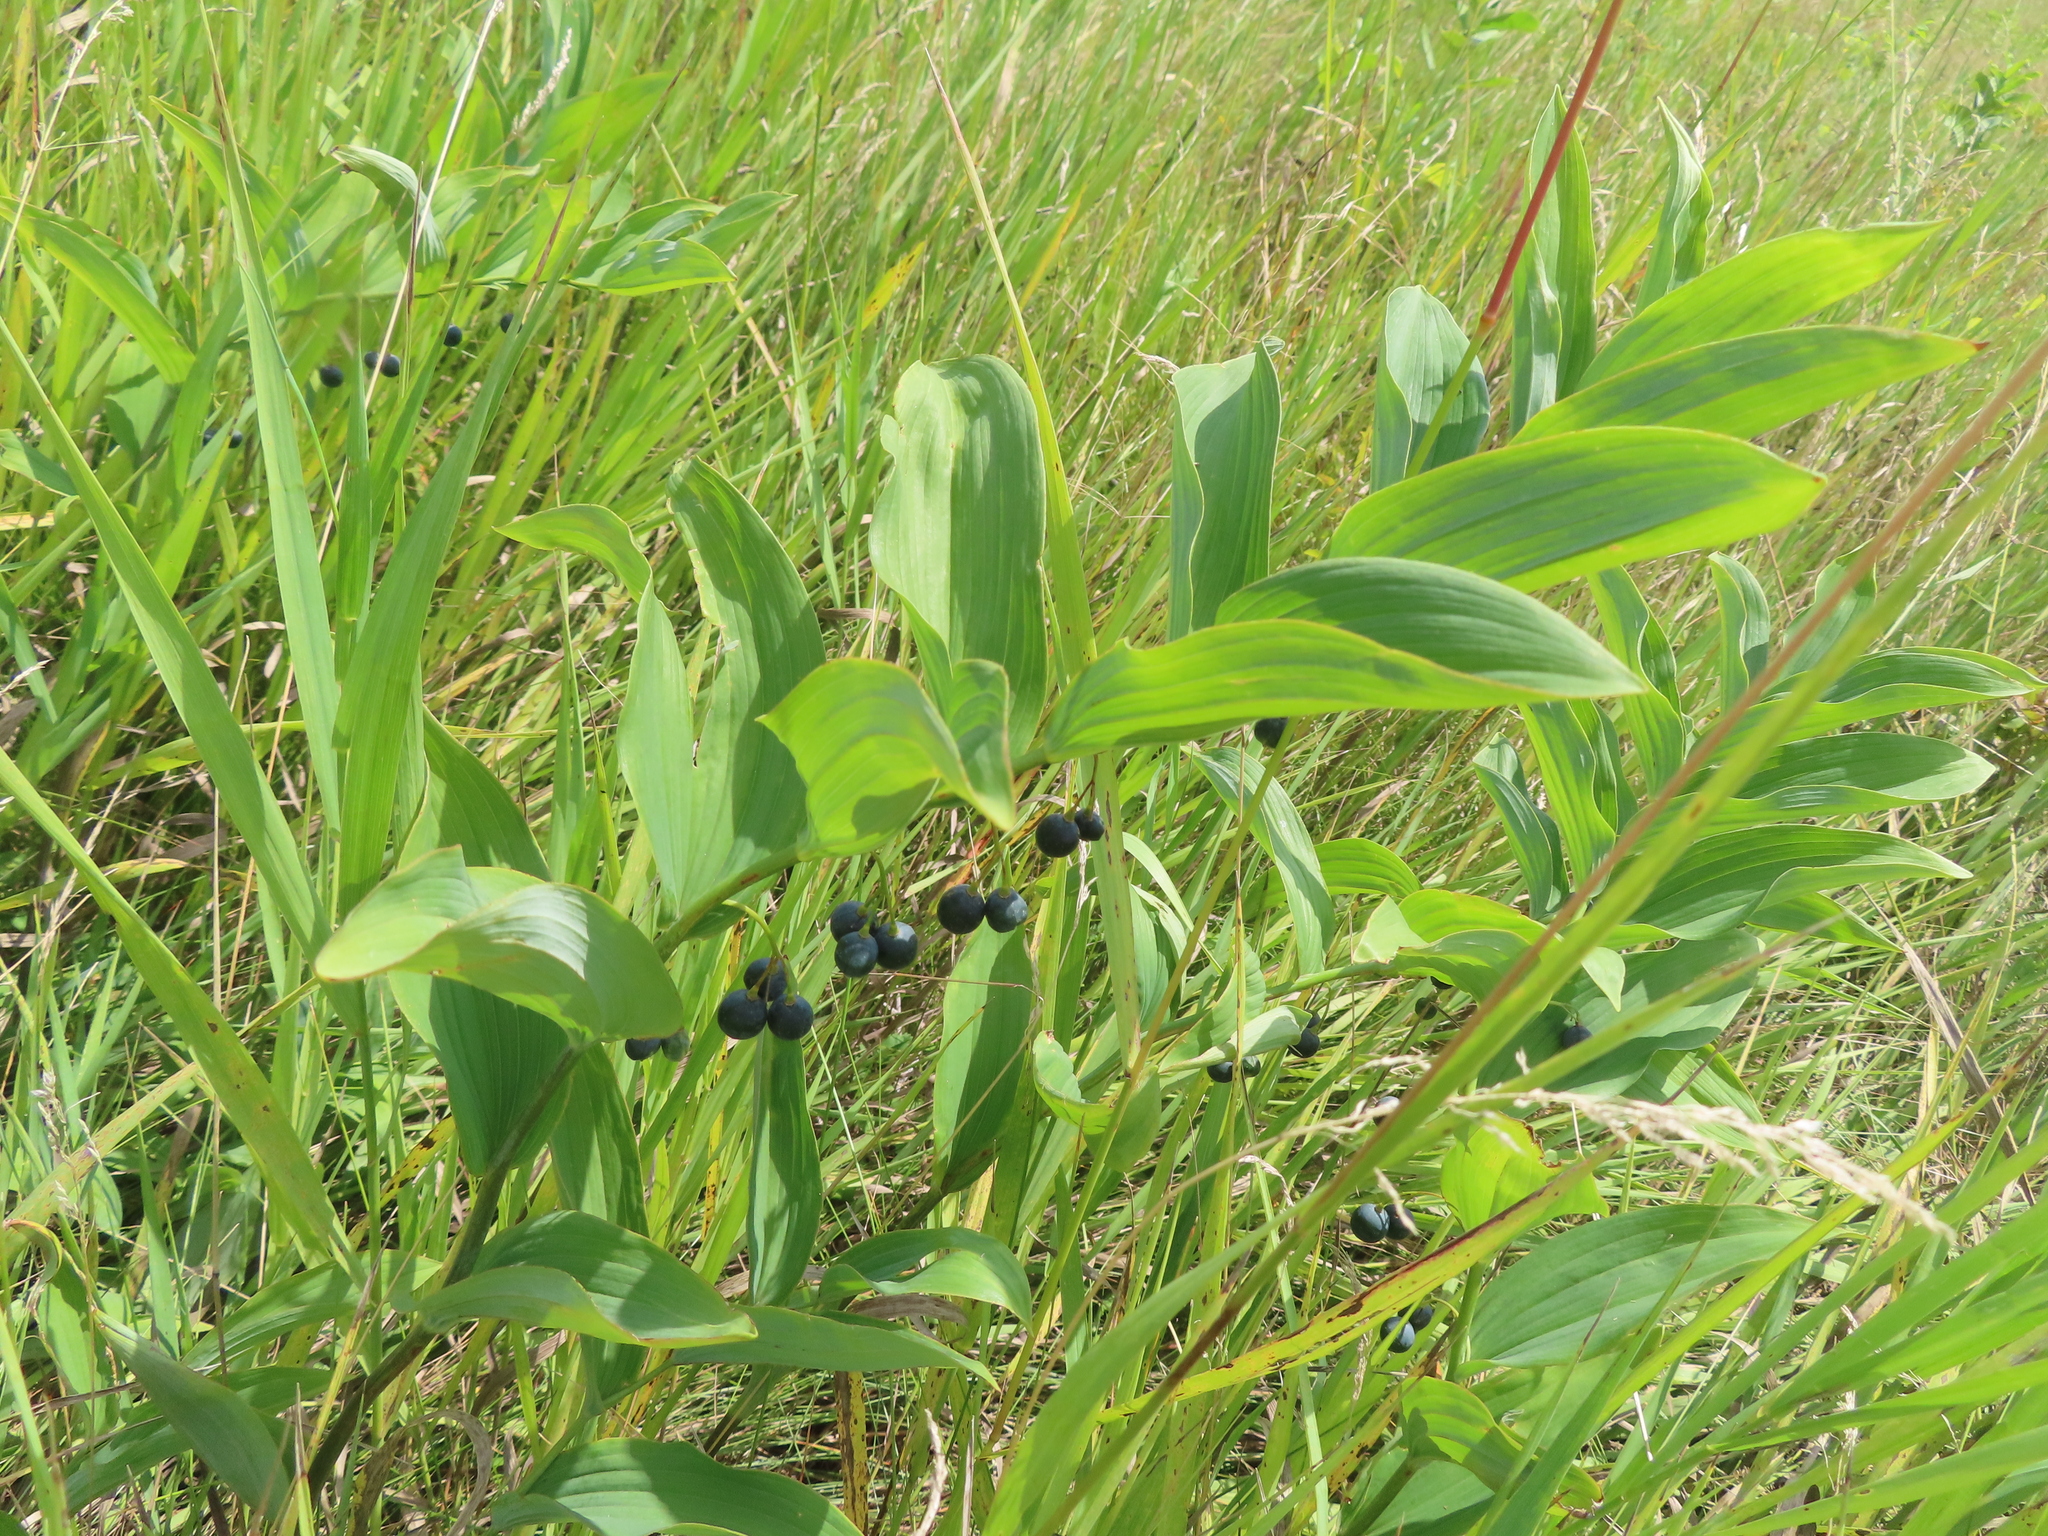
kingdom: Plantae
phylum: Tracheophyta
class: Liliopsida
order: Asparagales
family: Asparagaceae
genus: Polygonatum
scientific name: Polygonatum biflorum
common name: American solomon's-seal
